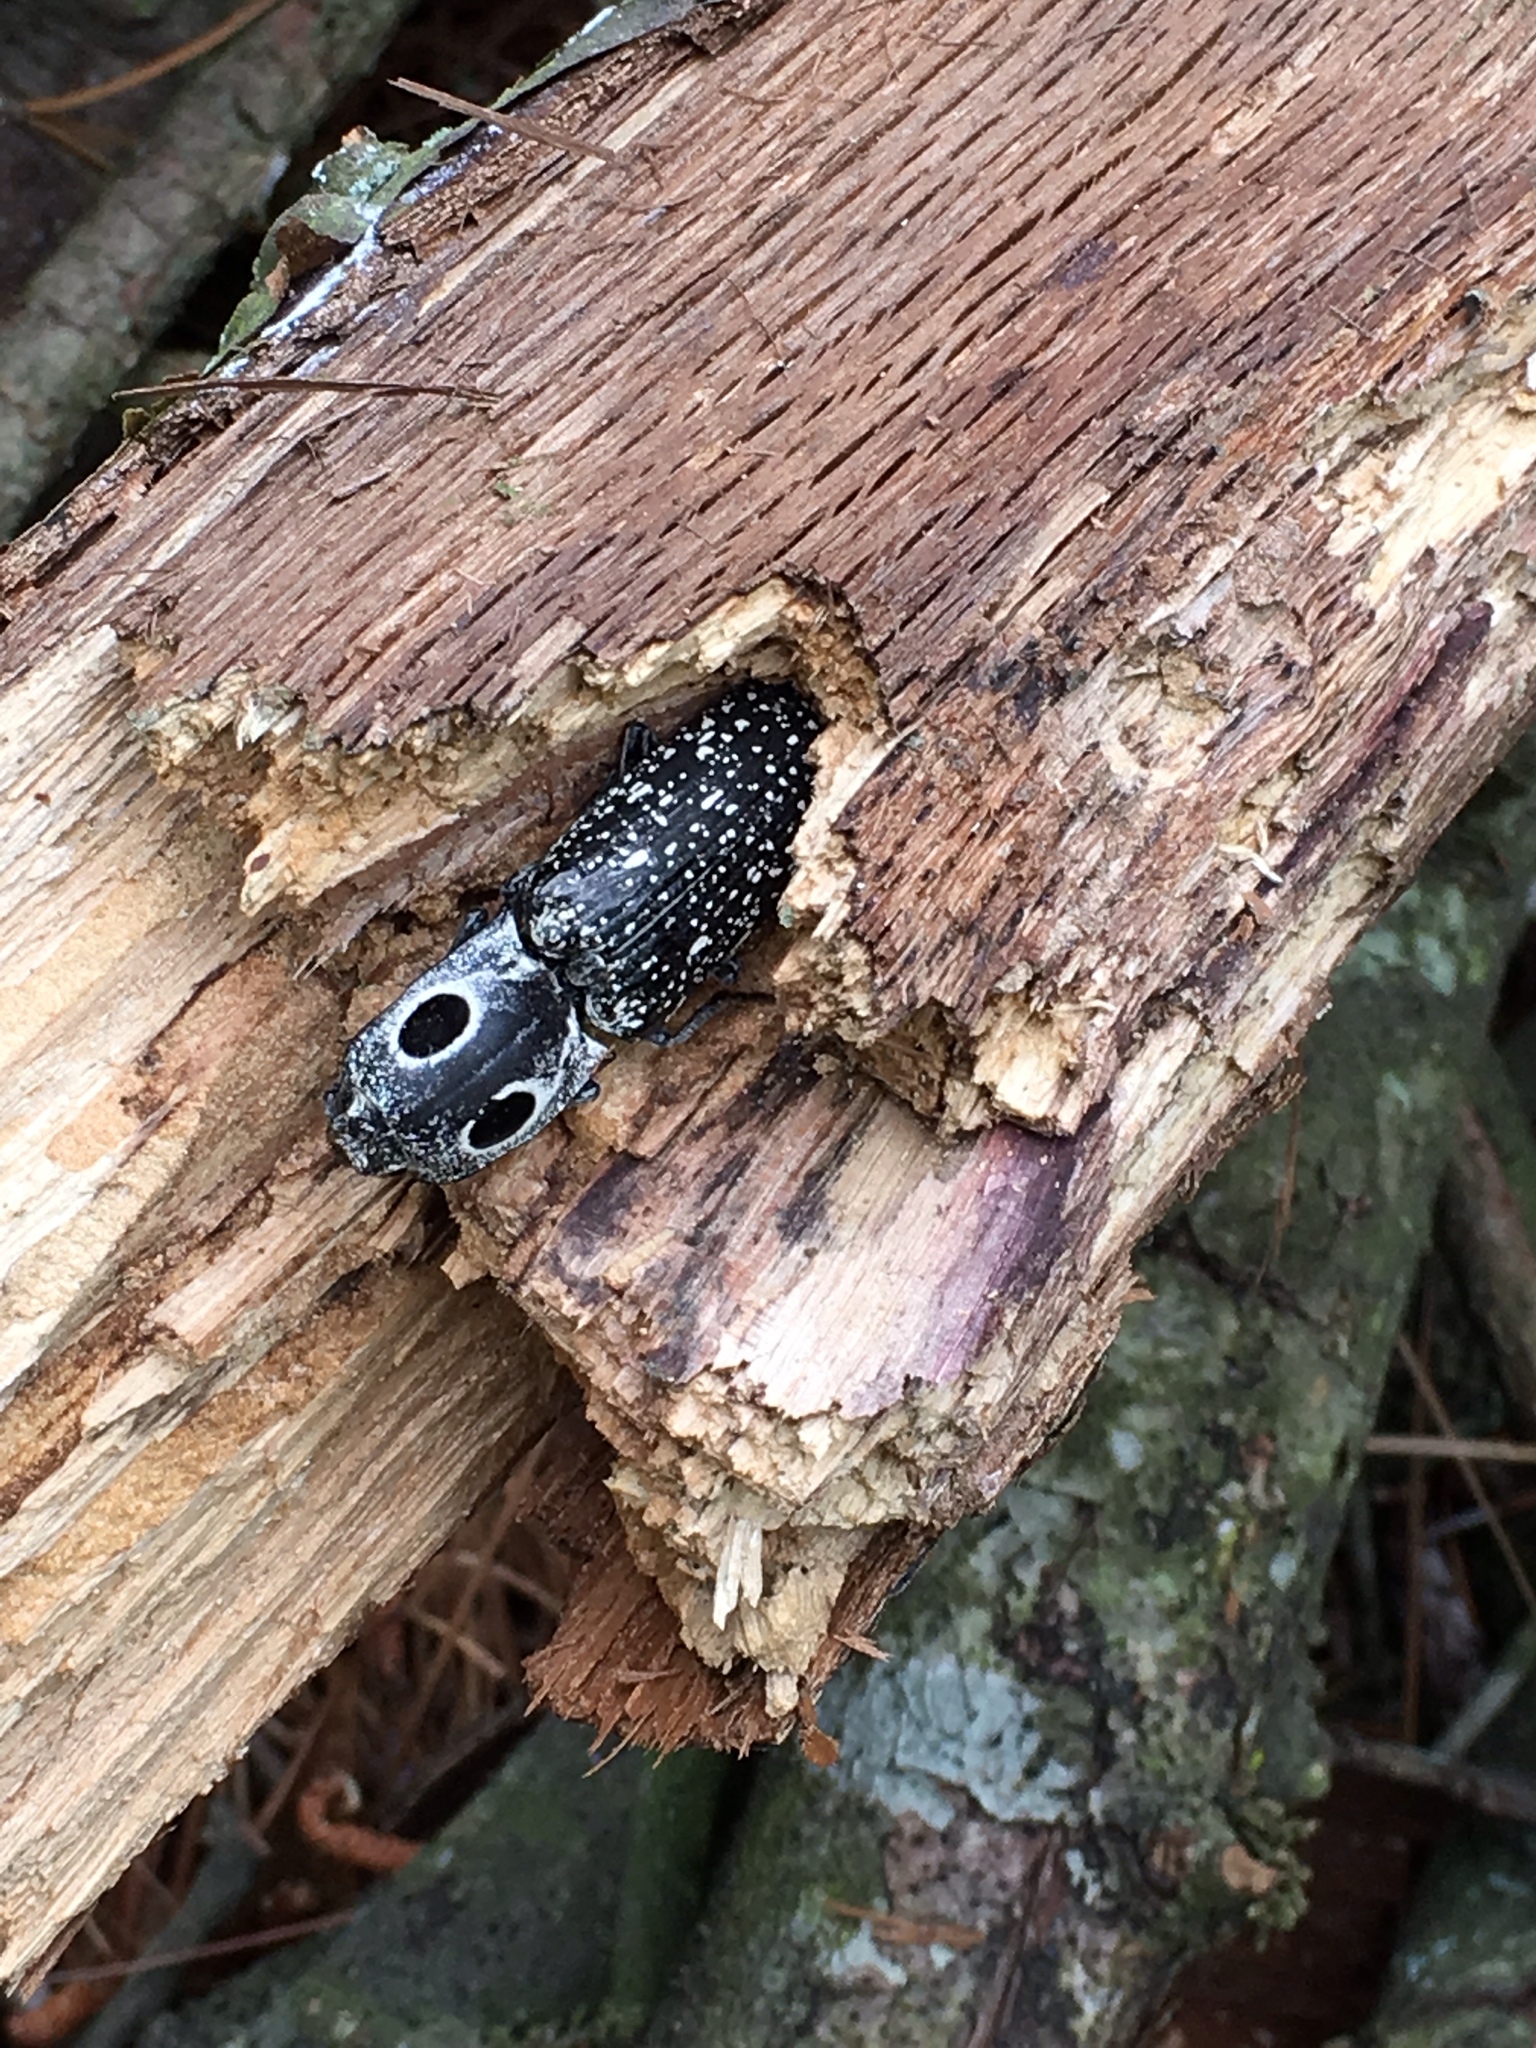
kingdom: Animalia
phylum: Arthropoda
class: Insecta
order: Coleoptera
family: Elateridae
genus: Alaus
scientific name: Alaus oculatus
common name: Eastern eyed click beetle
